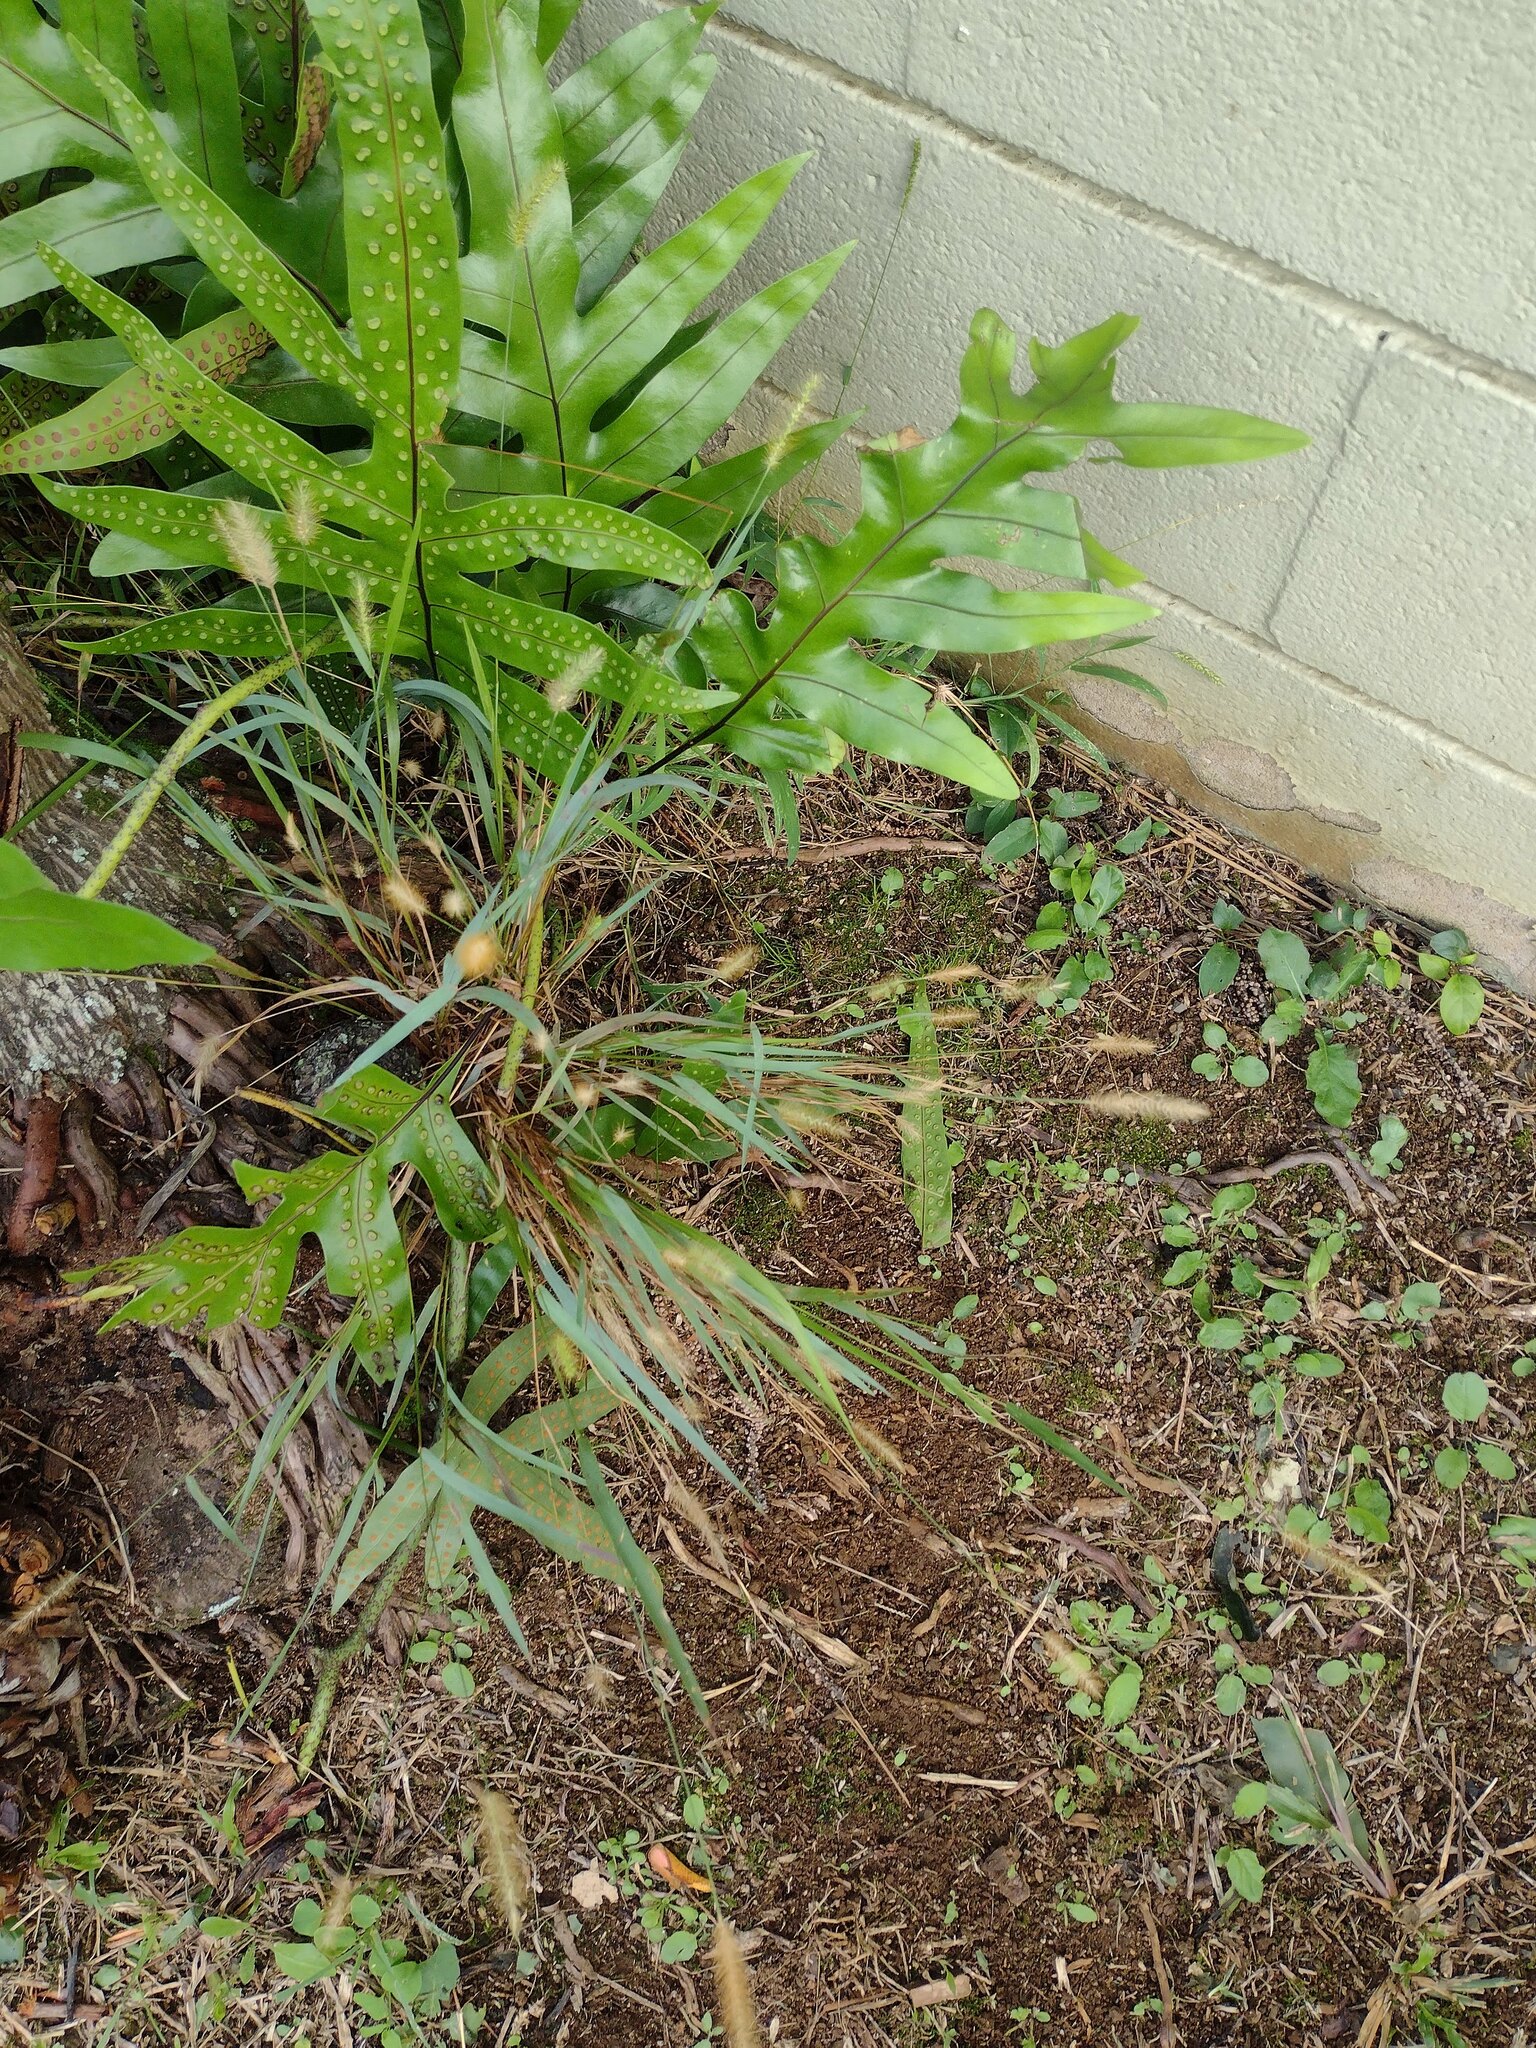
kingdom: Plantae
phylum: Tracheophyta
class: Liliopsida
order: Poales
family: Poaceae
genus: Setaria
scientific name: Setaria parviflora
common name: Knotroot bristle-grass
